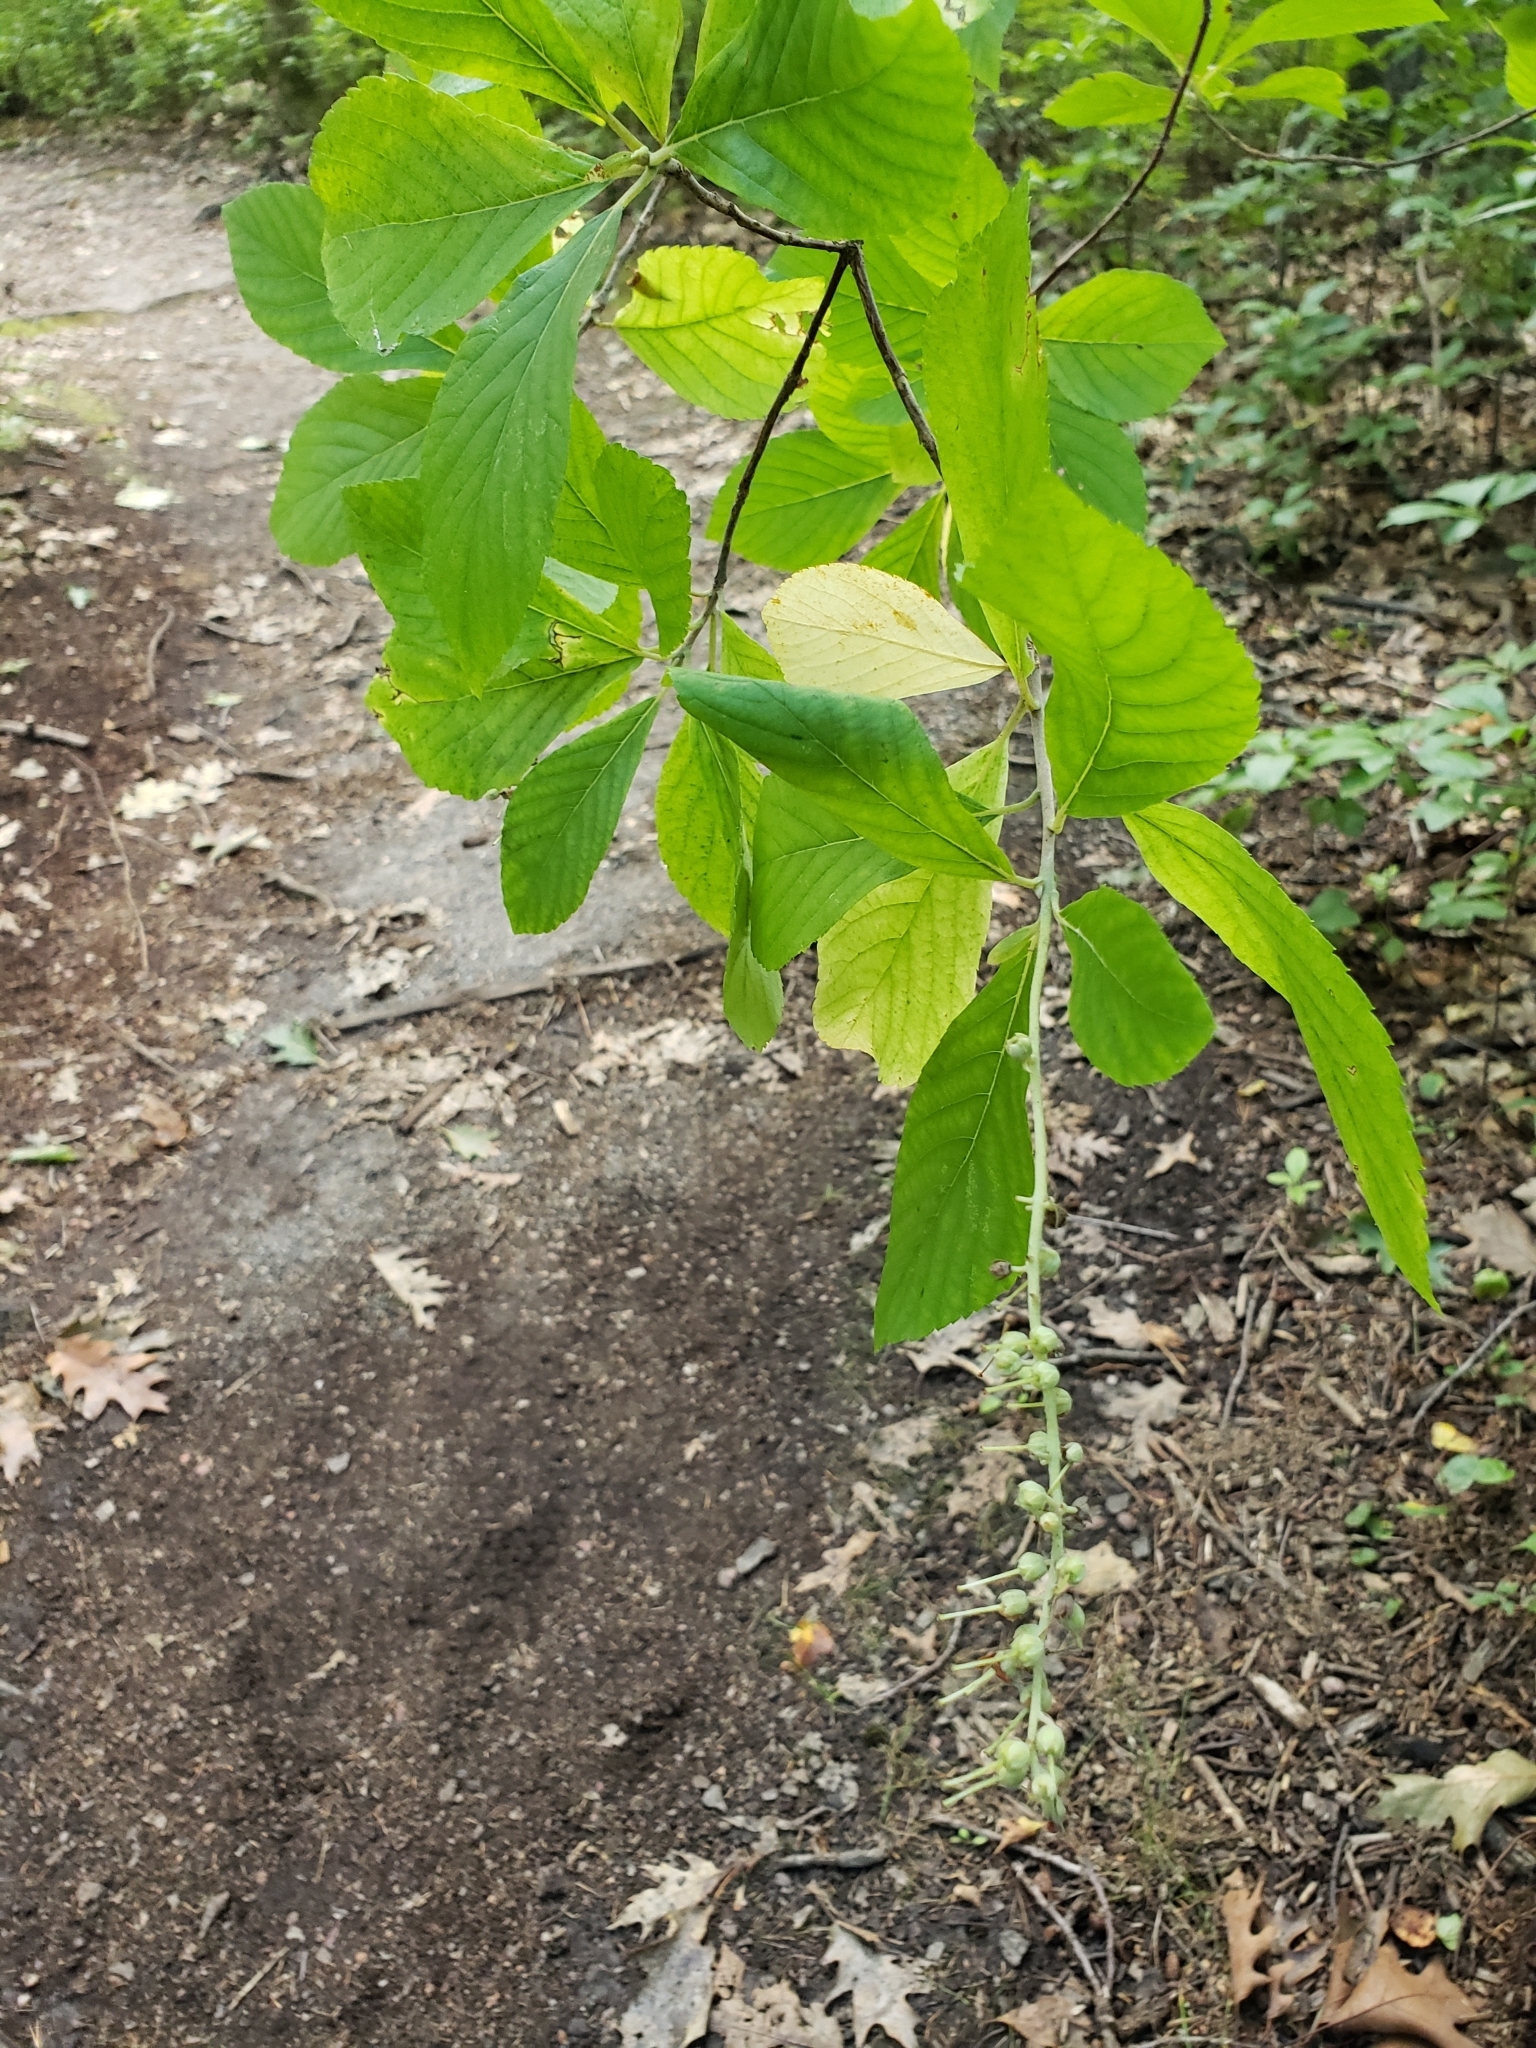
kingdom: Plantae
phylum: Tracheophyta
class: Magnoliopsida
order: Ericales
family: Clethraceae
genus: Clethra
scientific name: Clethra alnifolia
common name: Sweet pepperbush
